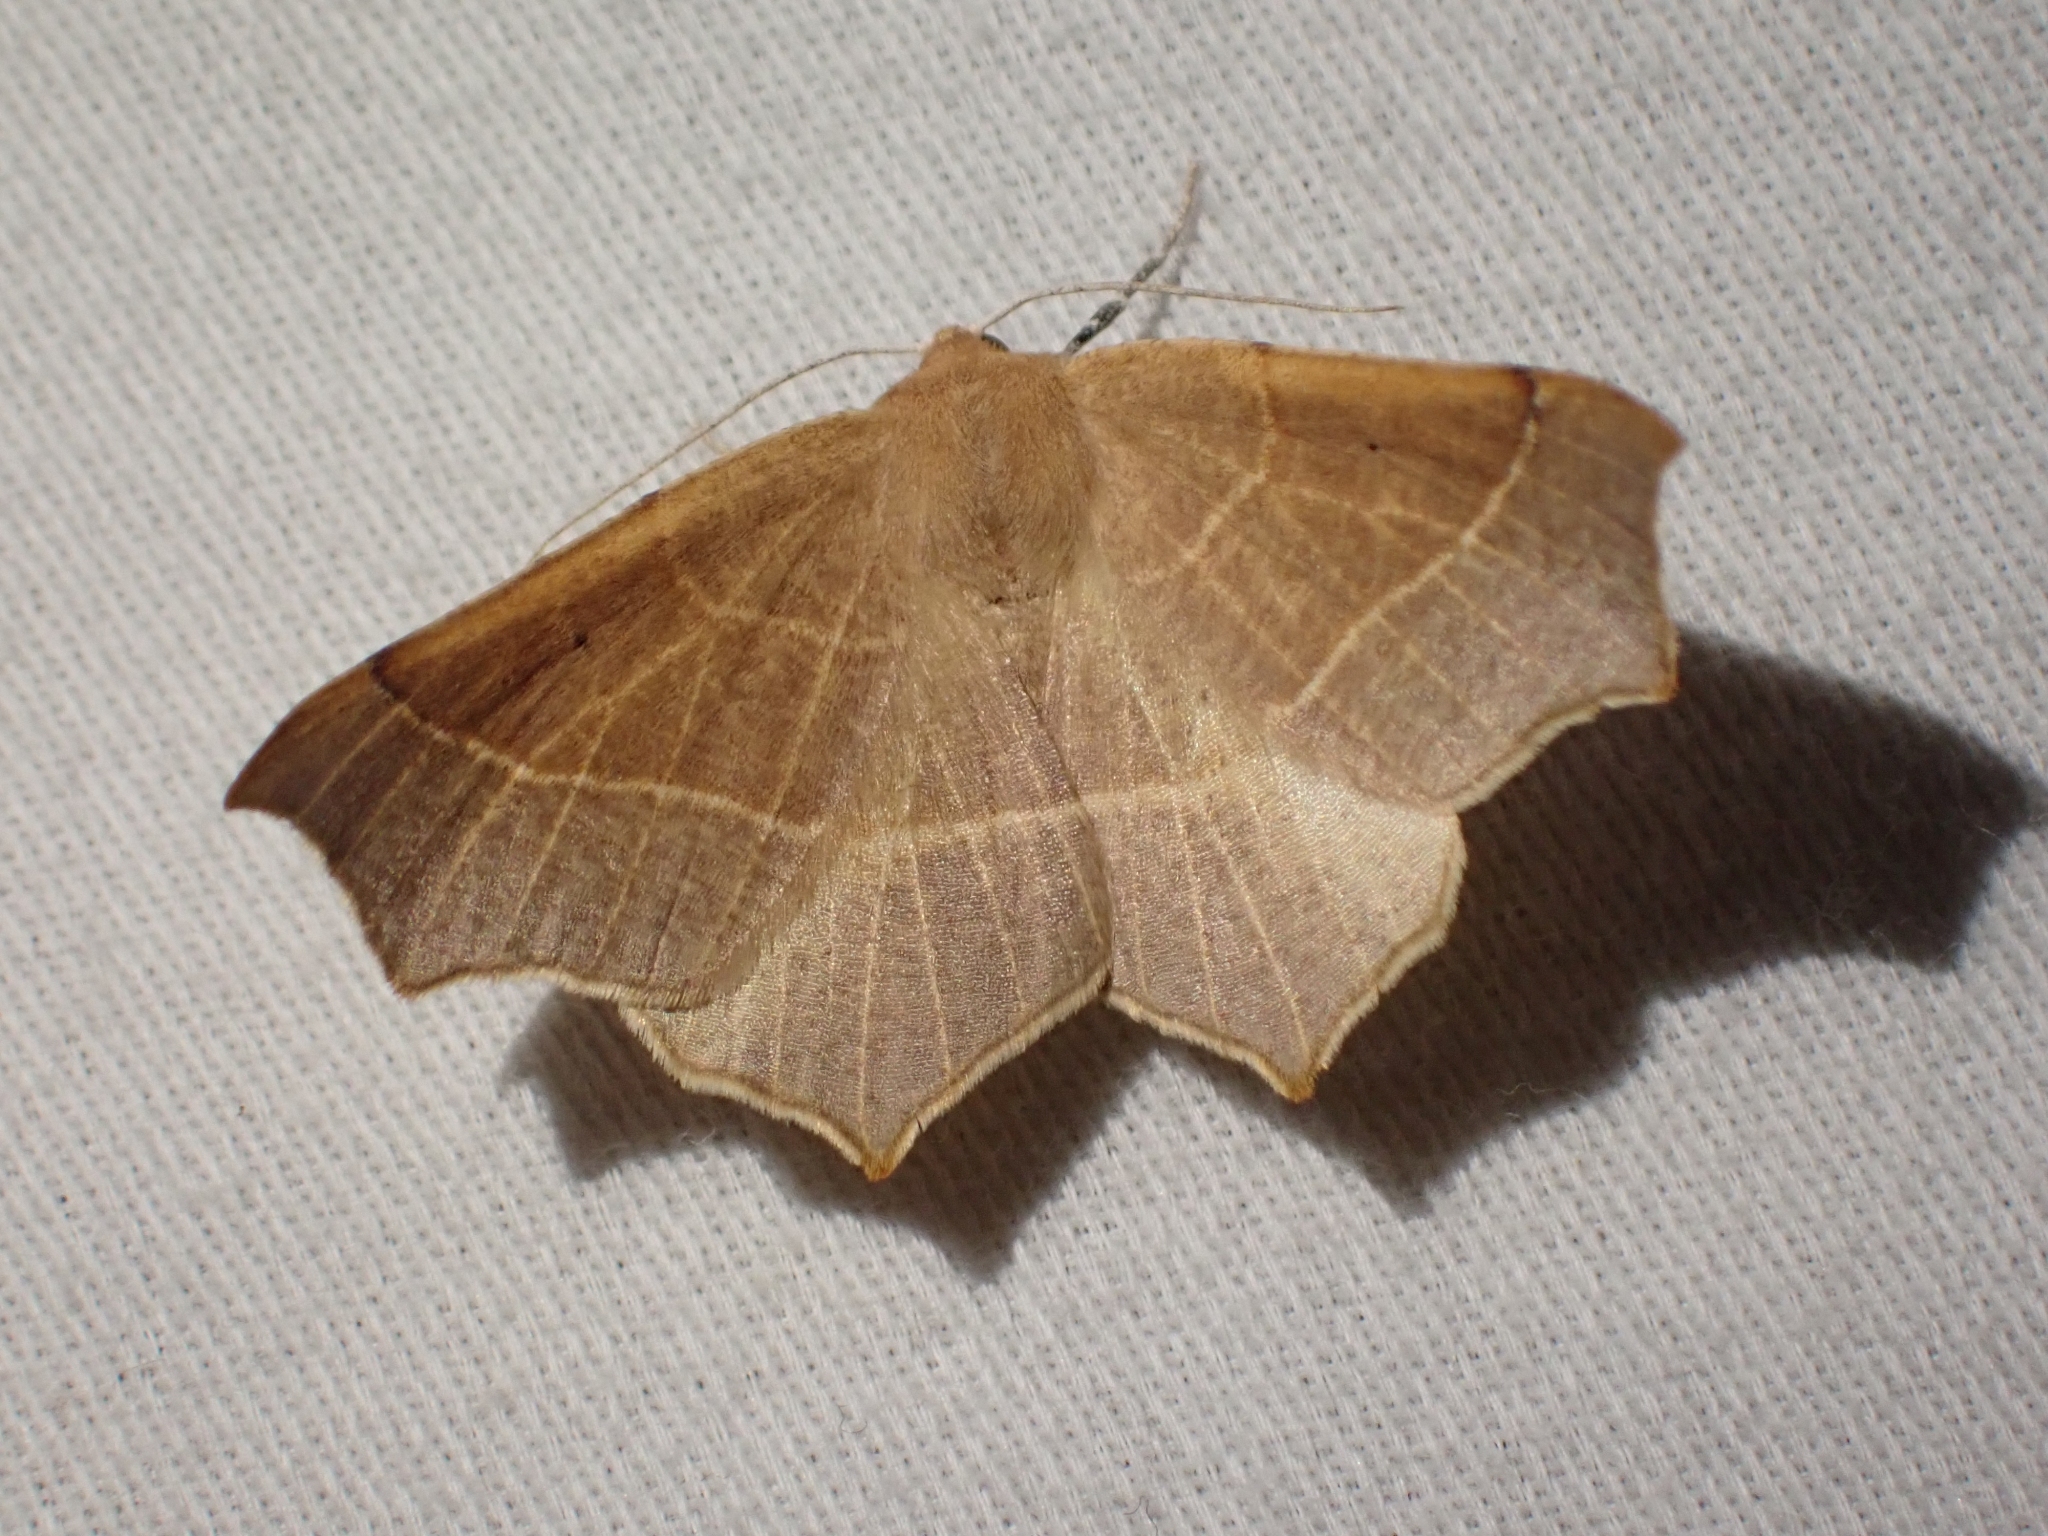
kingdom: Animalia
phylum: Arthropoda
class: Insecta
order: Lepidoptera
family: Geometridae
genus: Tetracis
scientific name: Tetracis cervinaria
